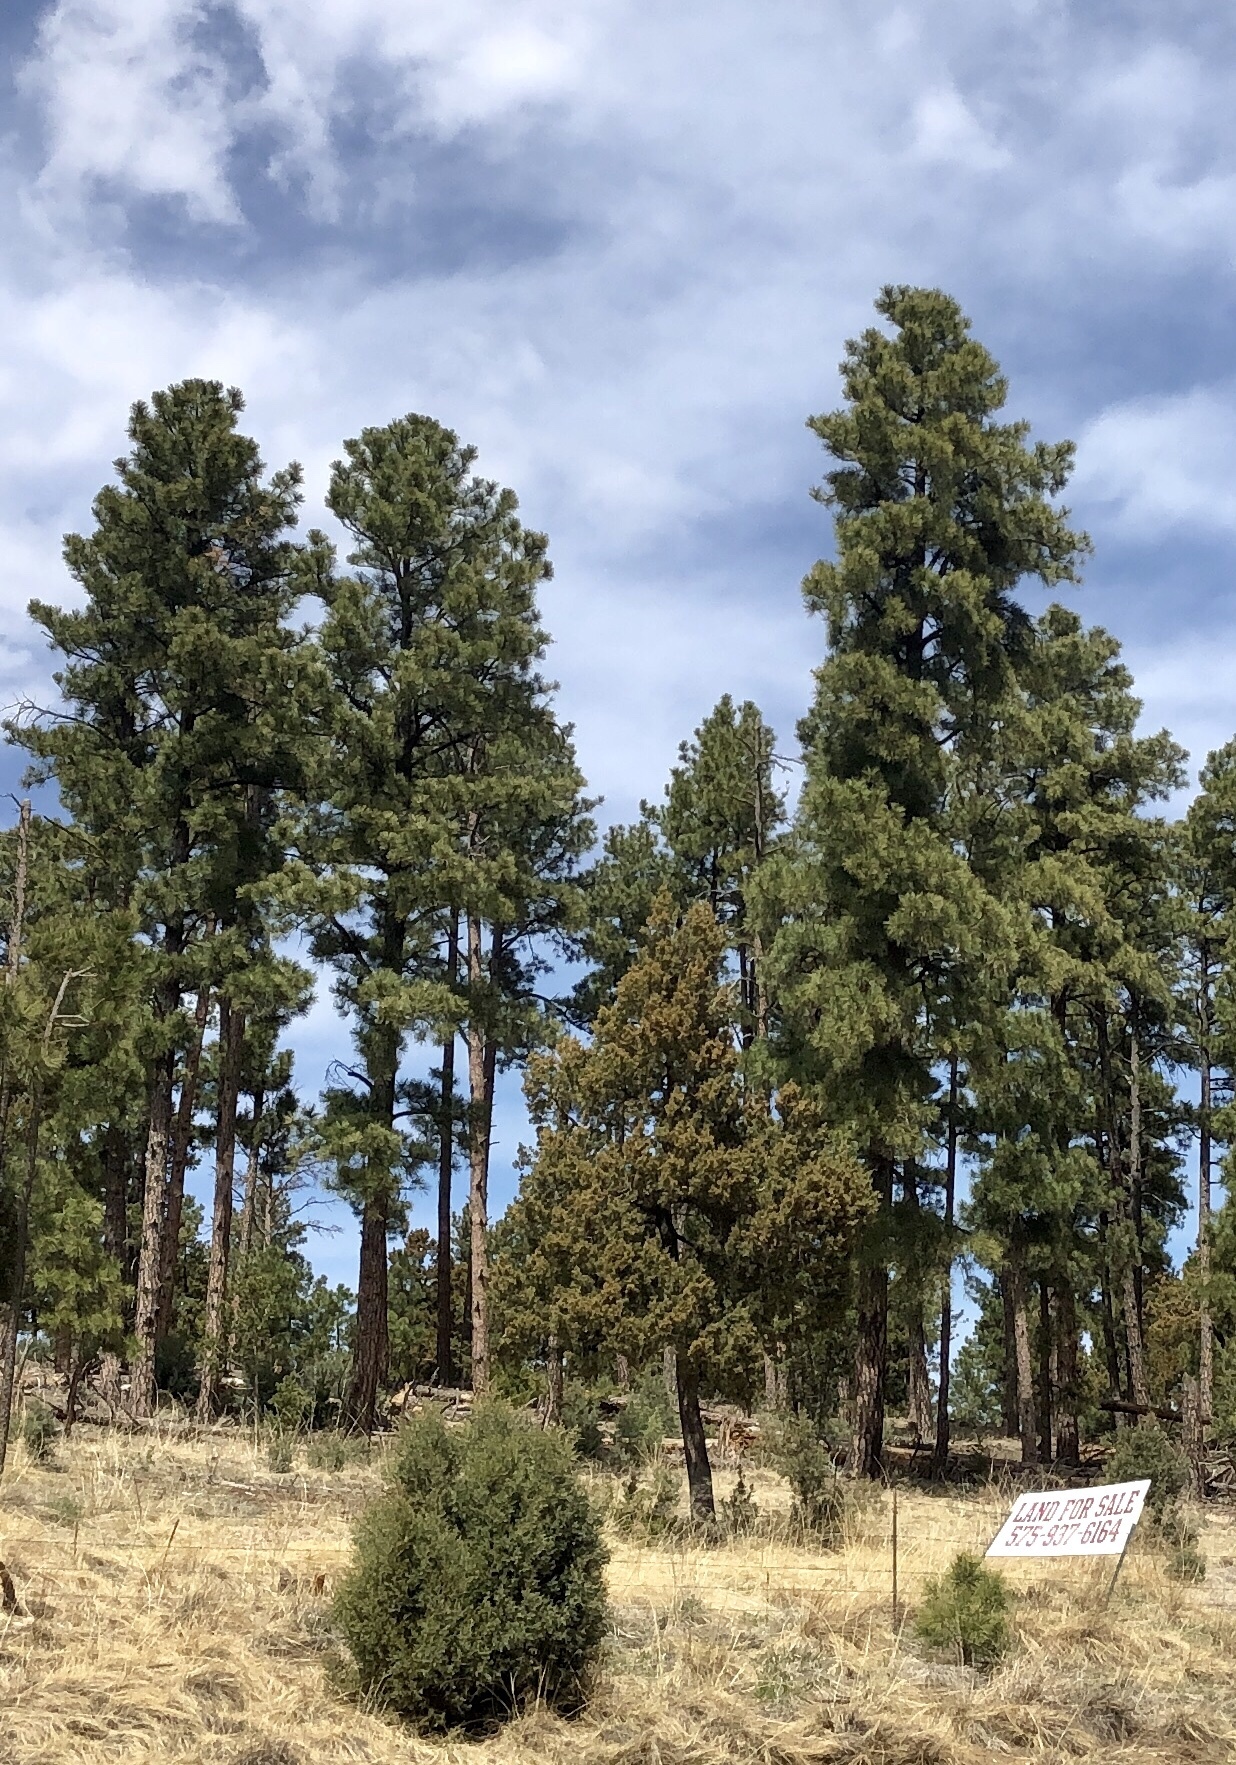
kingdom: Plantae
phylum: Tracheophyta
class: Pinopsida
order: Pinales
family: Pinaceae
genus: Pinus
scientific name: Pinus ponderosa
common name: Western yellow-pine
